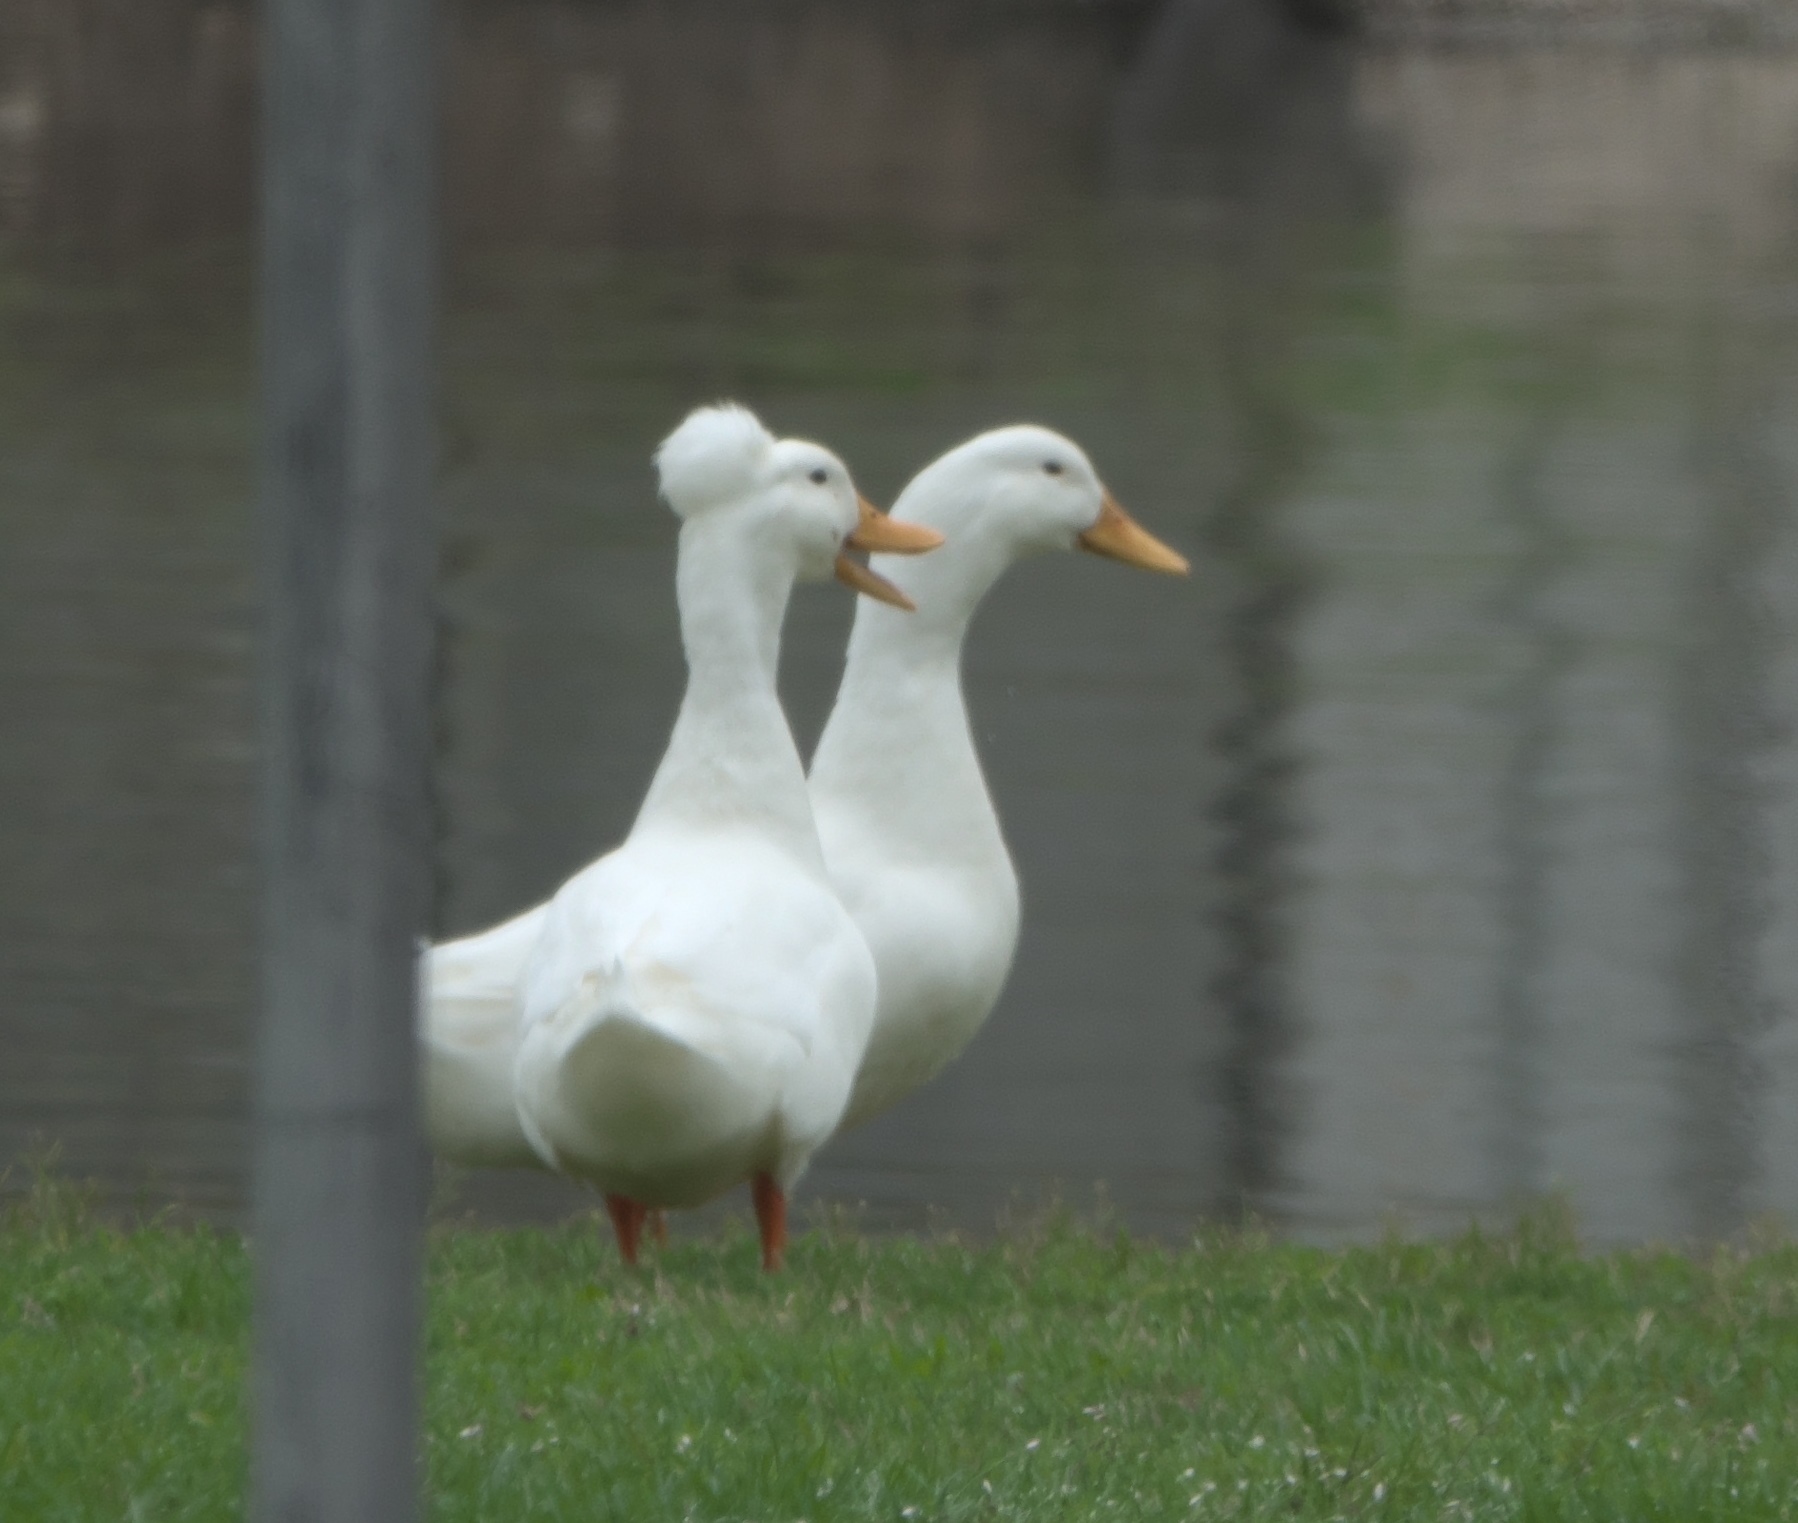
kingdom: Animalia
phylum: Chordata
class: Aves
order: Anseriformes
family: Anatidae
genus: Anas
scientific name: Anas platyrhynchos
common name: Mallard
